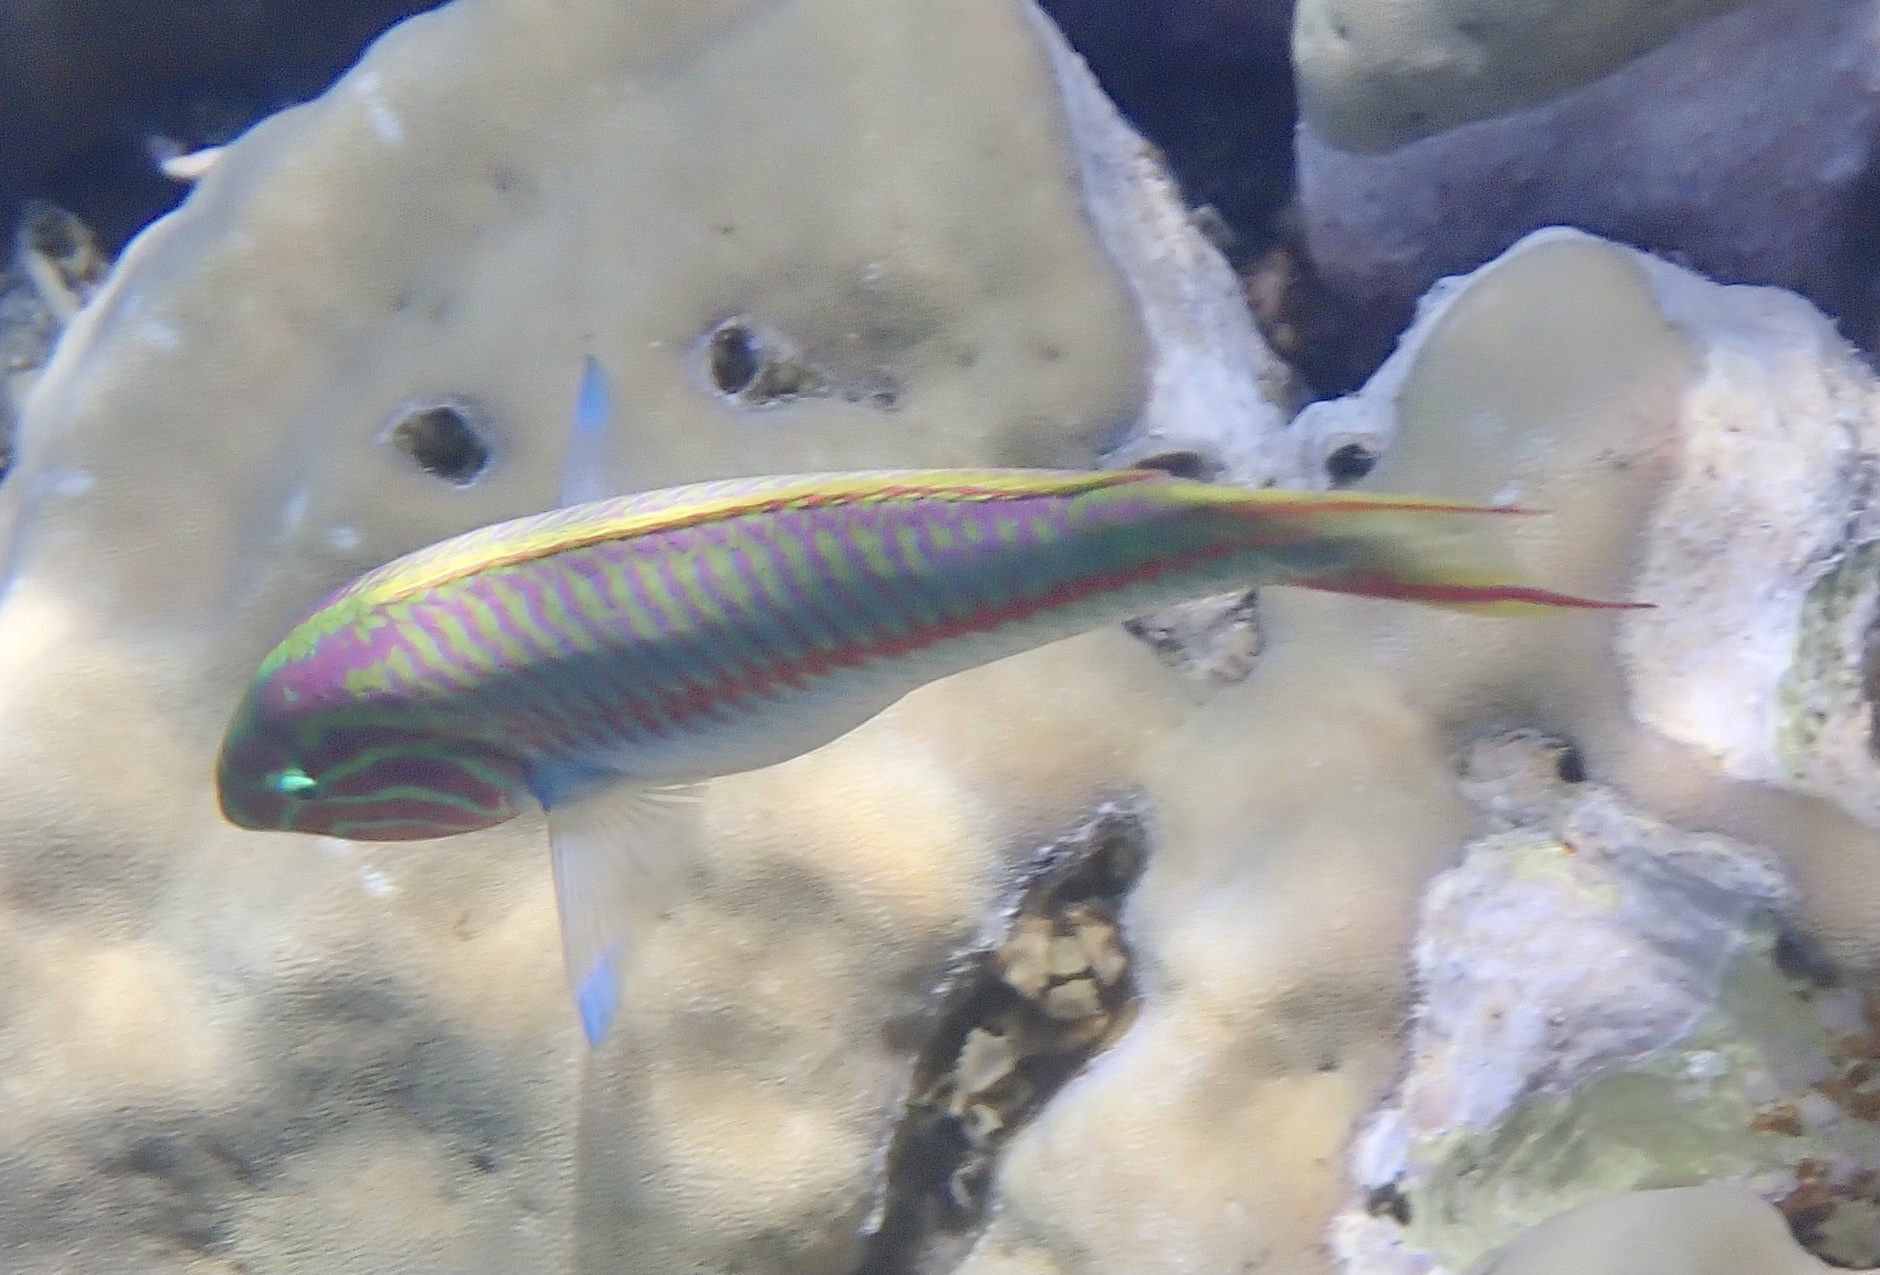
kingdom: Animalia
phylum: Chordata
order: Perciformes
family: Labridae
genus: Thalassoma
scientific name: Thalassoma rueppellii
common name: Klunzinger's wrasse
